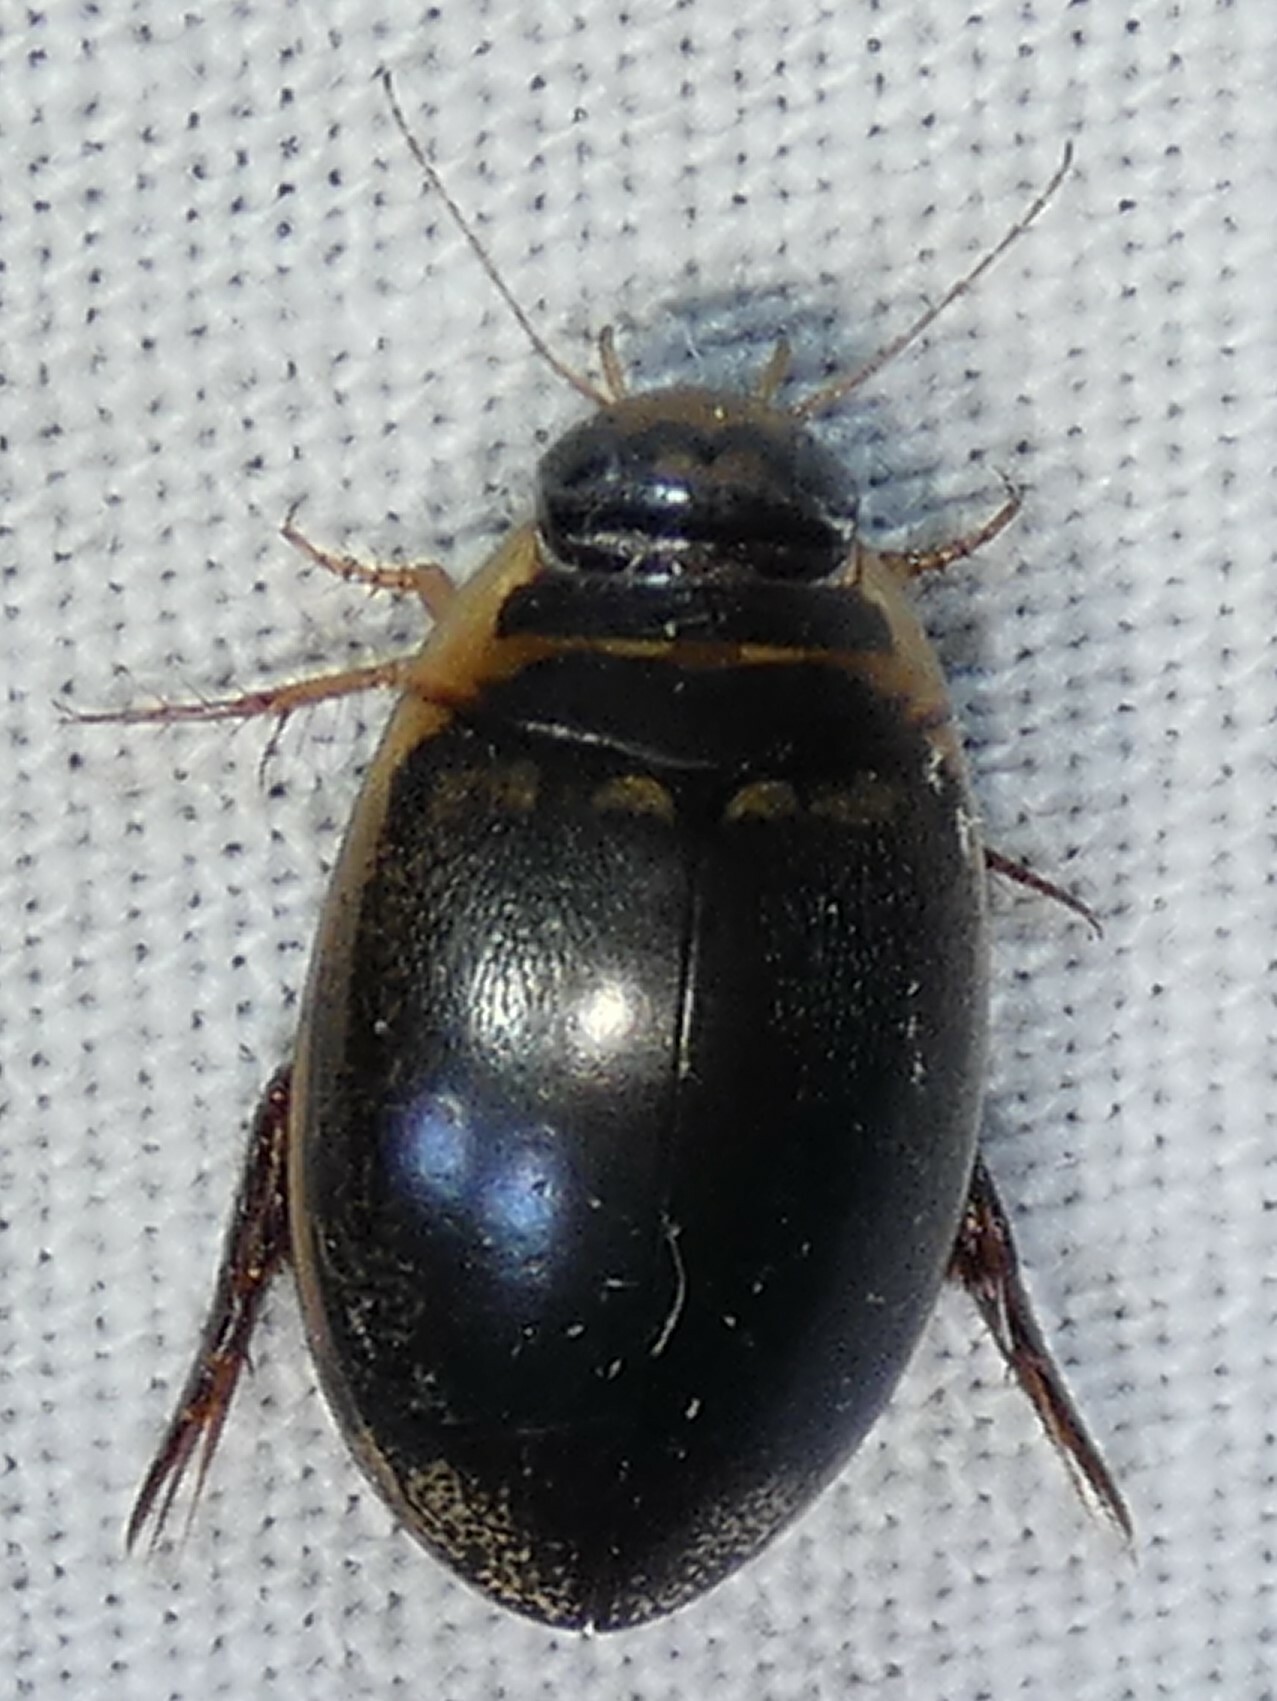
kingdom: Animalia
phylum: Arthropoda
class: Insecta
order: Coleoptera
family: Dytiscidae
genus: Thermonectus
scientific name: Thermonectus basillaris
